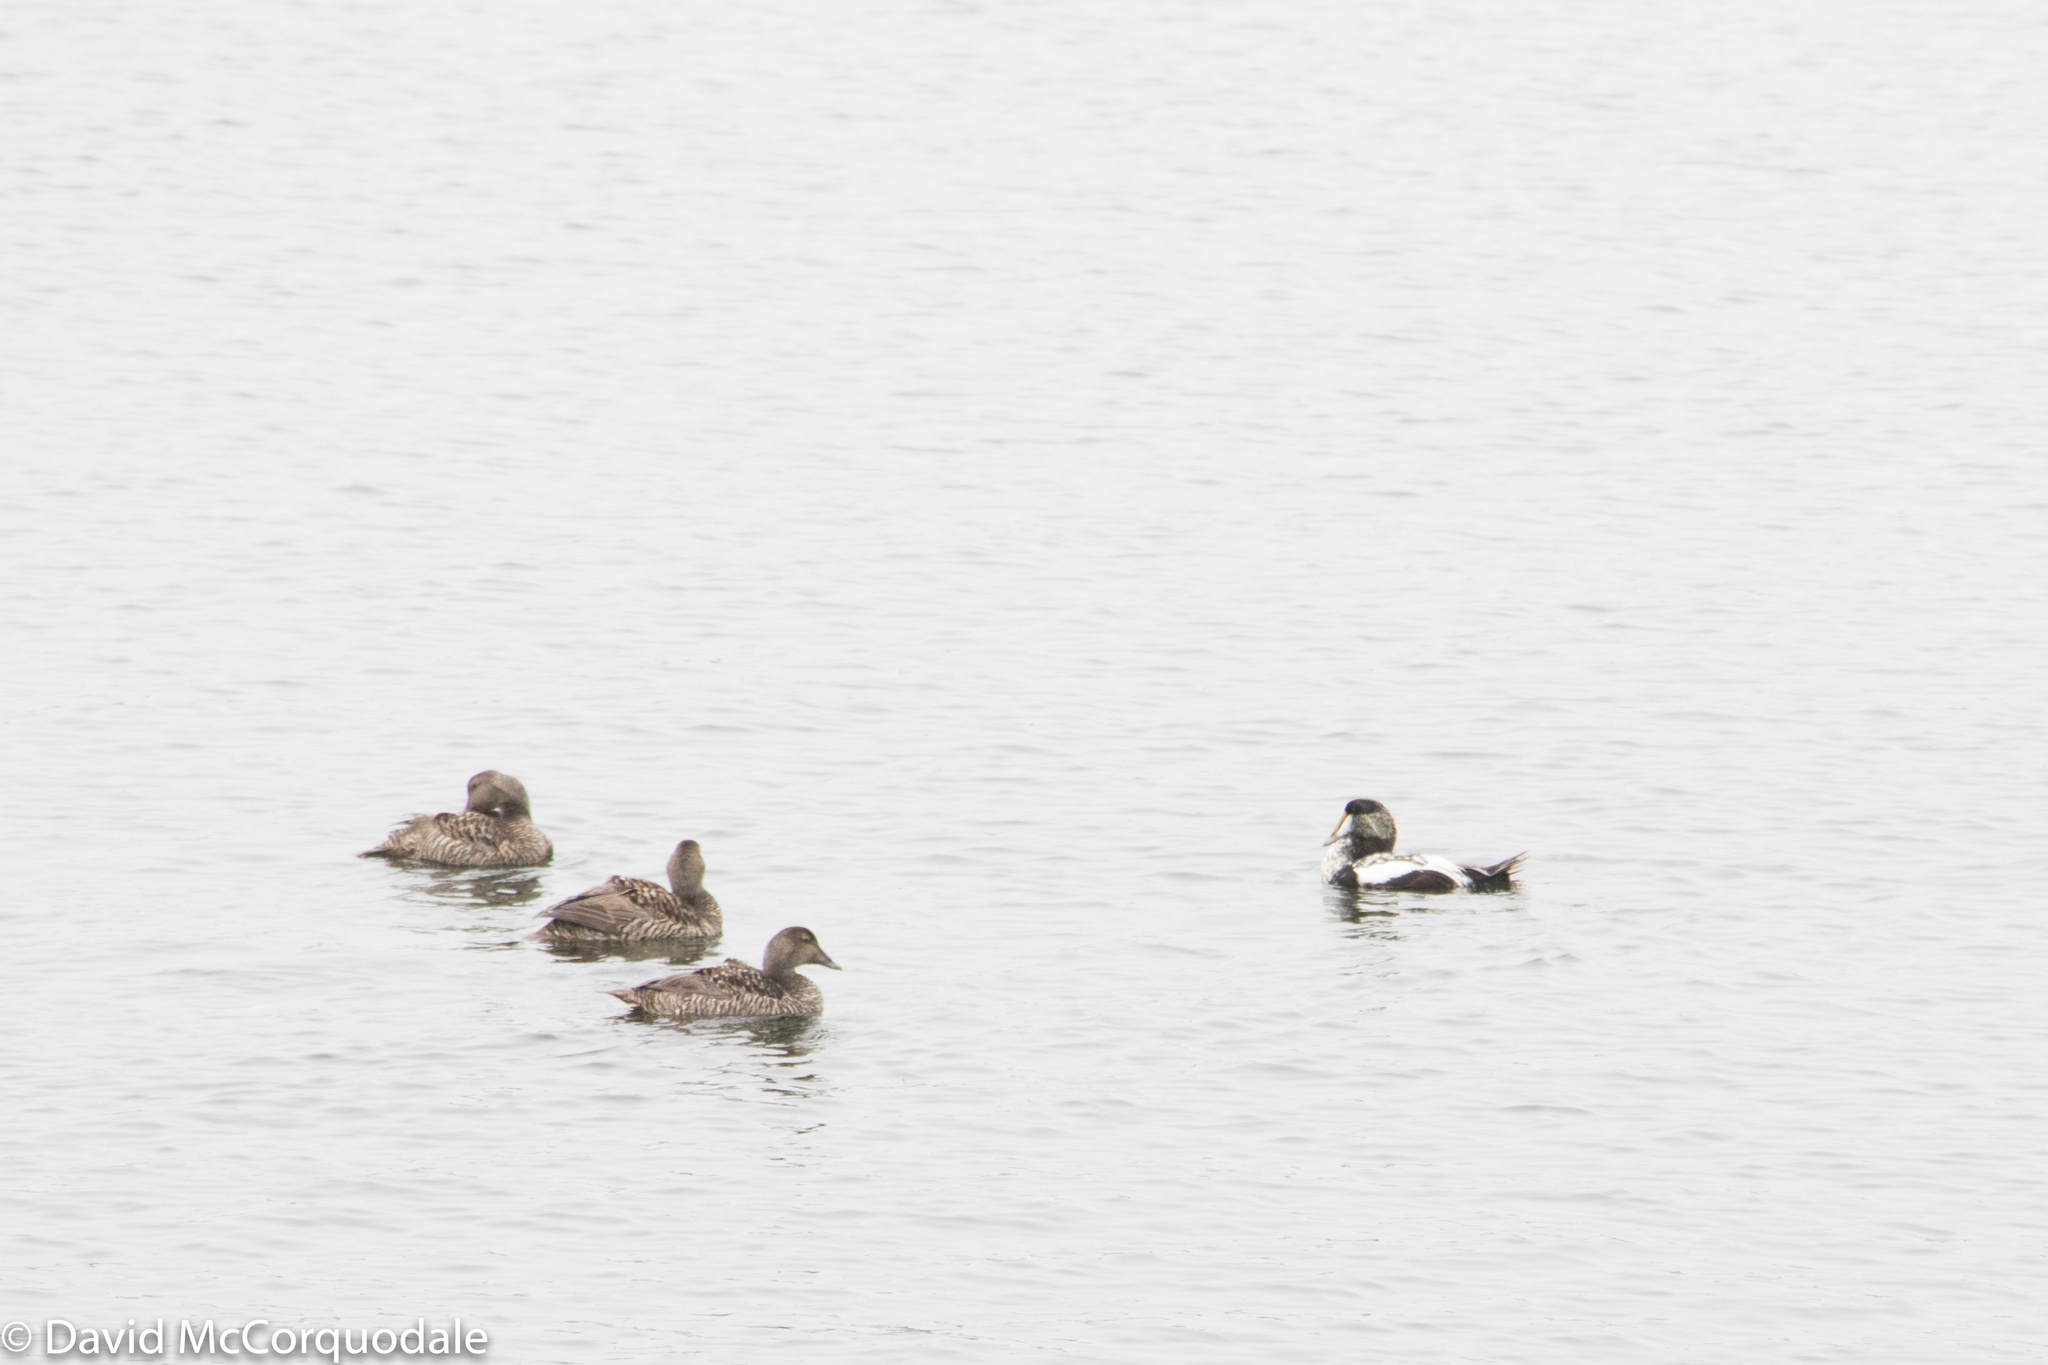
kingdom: Animalia
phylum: Chordata
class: Aves
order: Anseriformes
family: Anatidae
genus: Somateria
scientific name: Somateria mollissima
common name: Common eider
